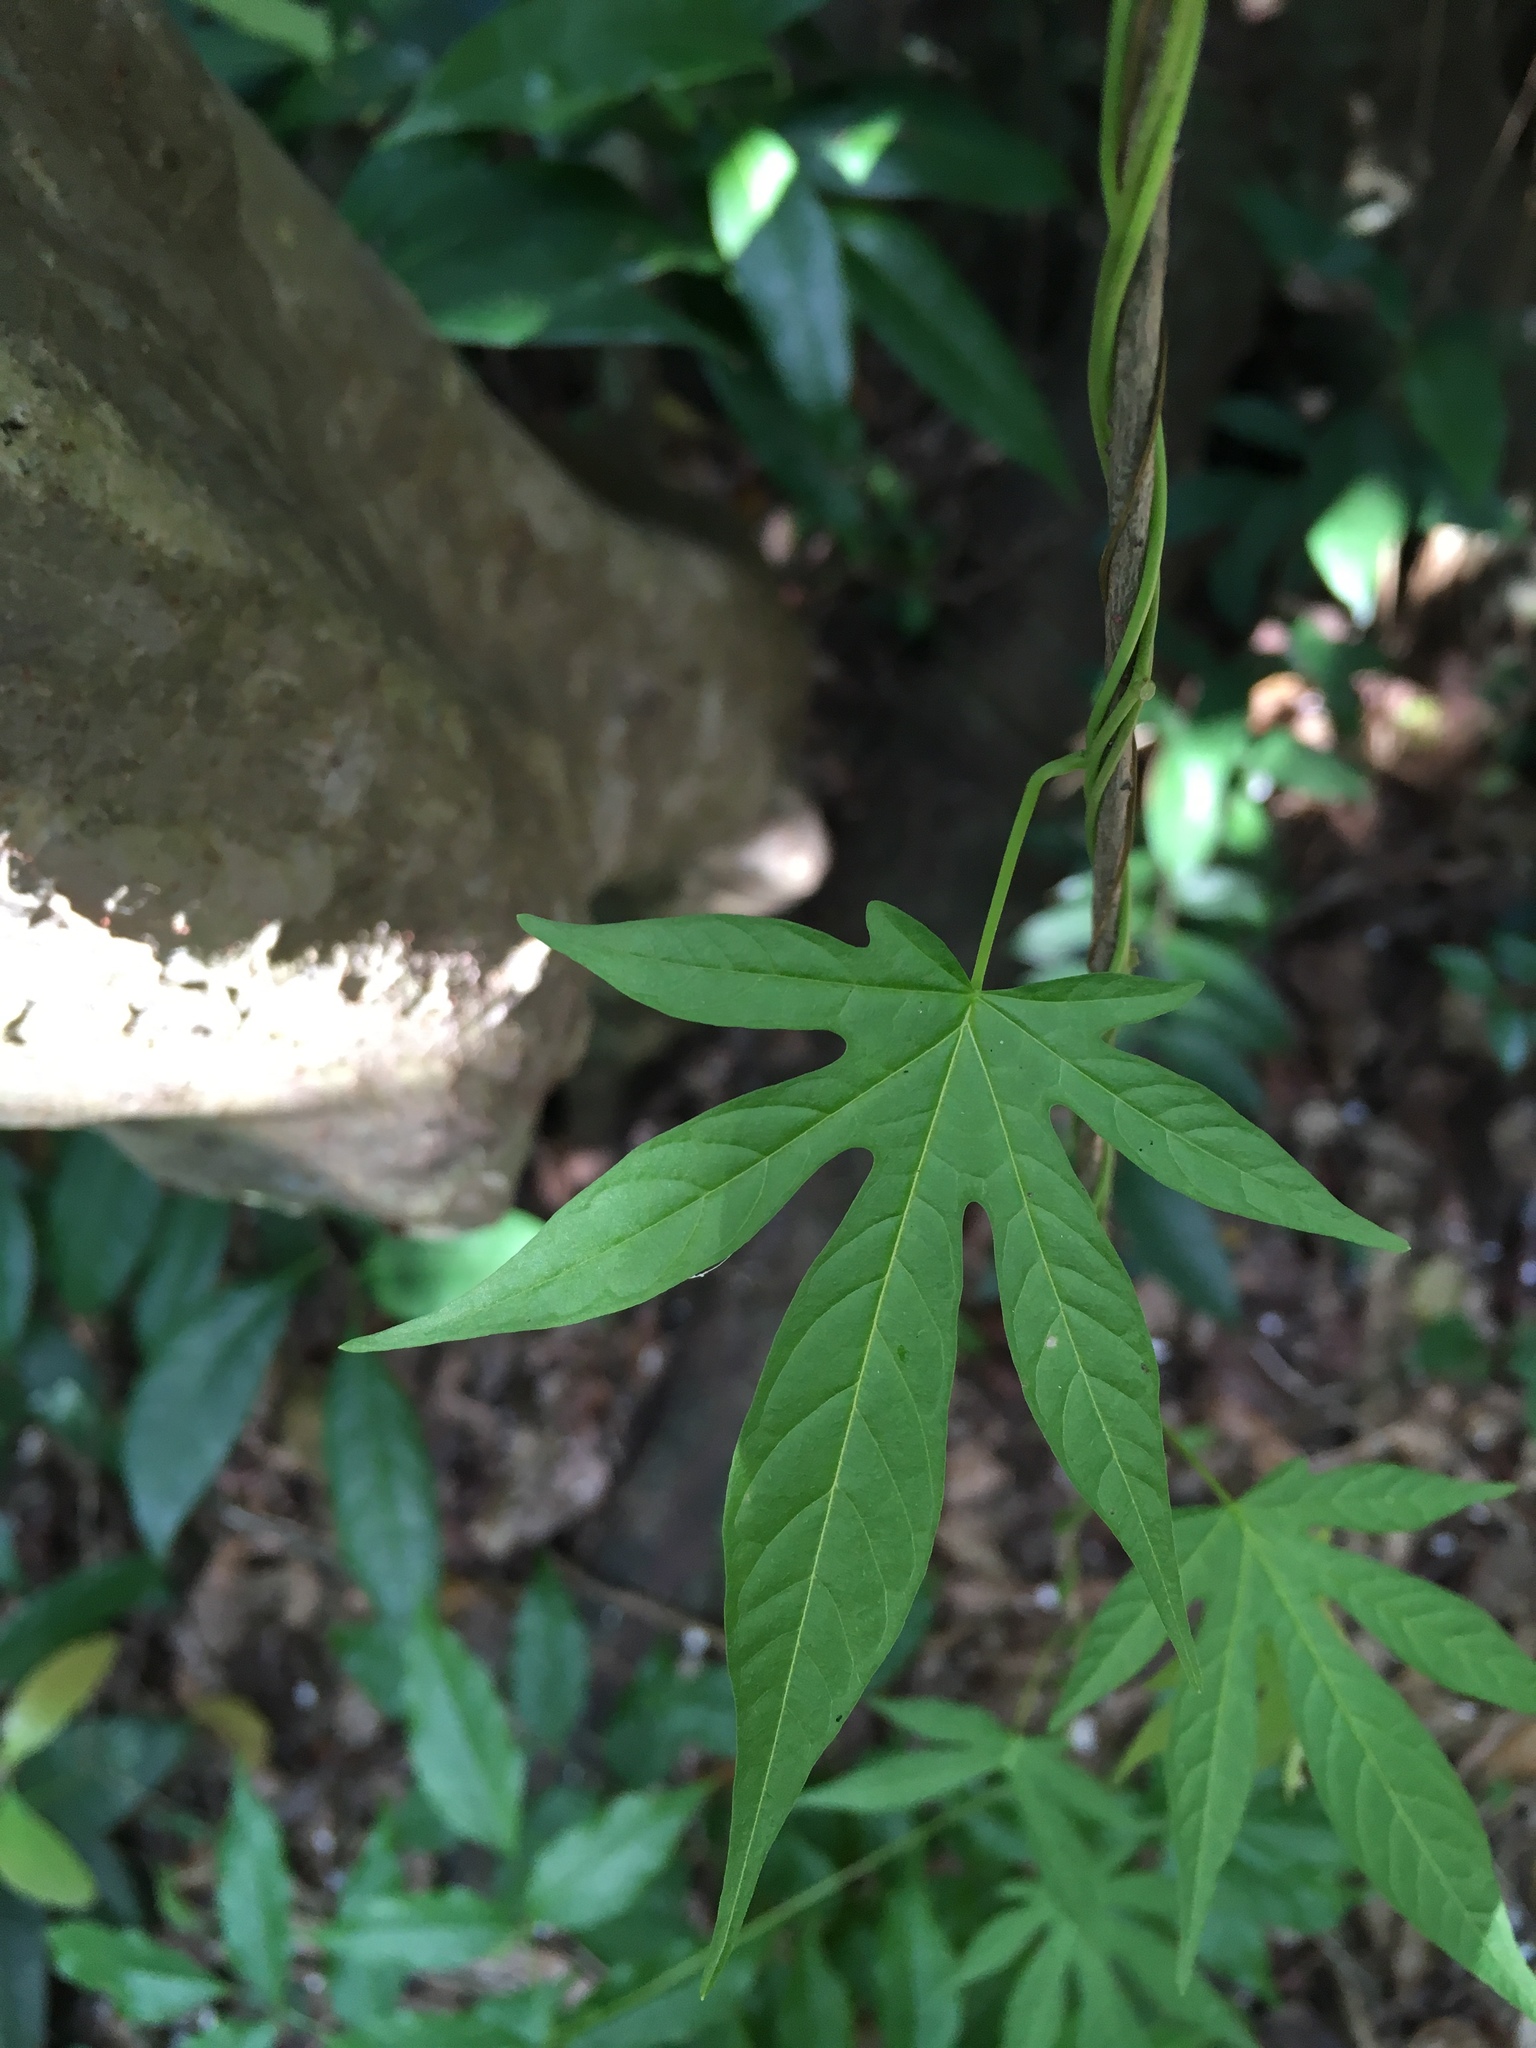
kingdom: Plantae
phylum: Tracheophyta
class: Magnoliopsida
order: Solanales
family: Convolvulaceae
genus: Distimake
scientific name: Distimake tuberosus
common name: Spanish arborvine
